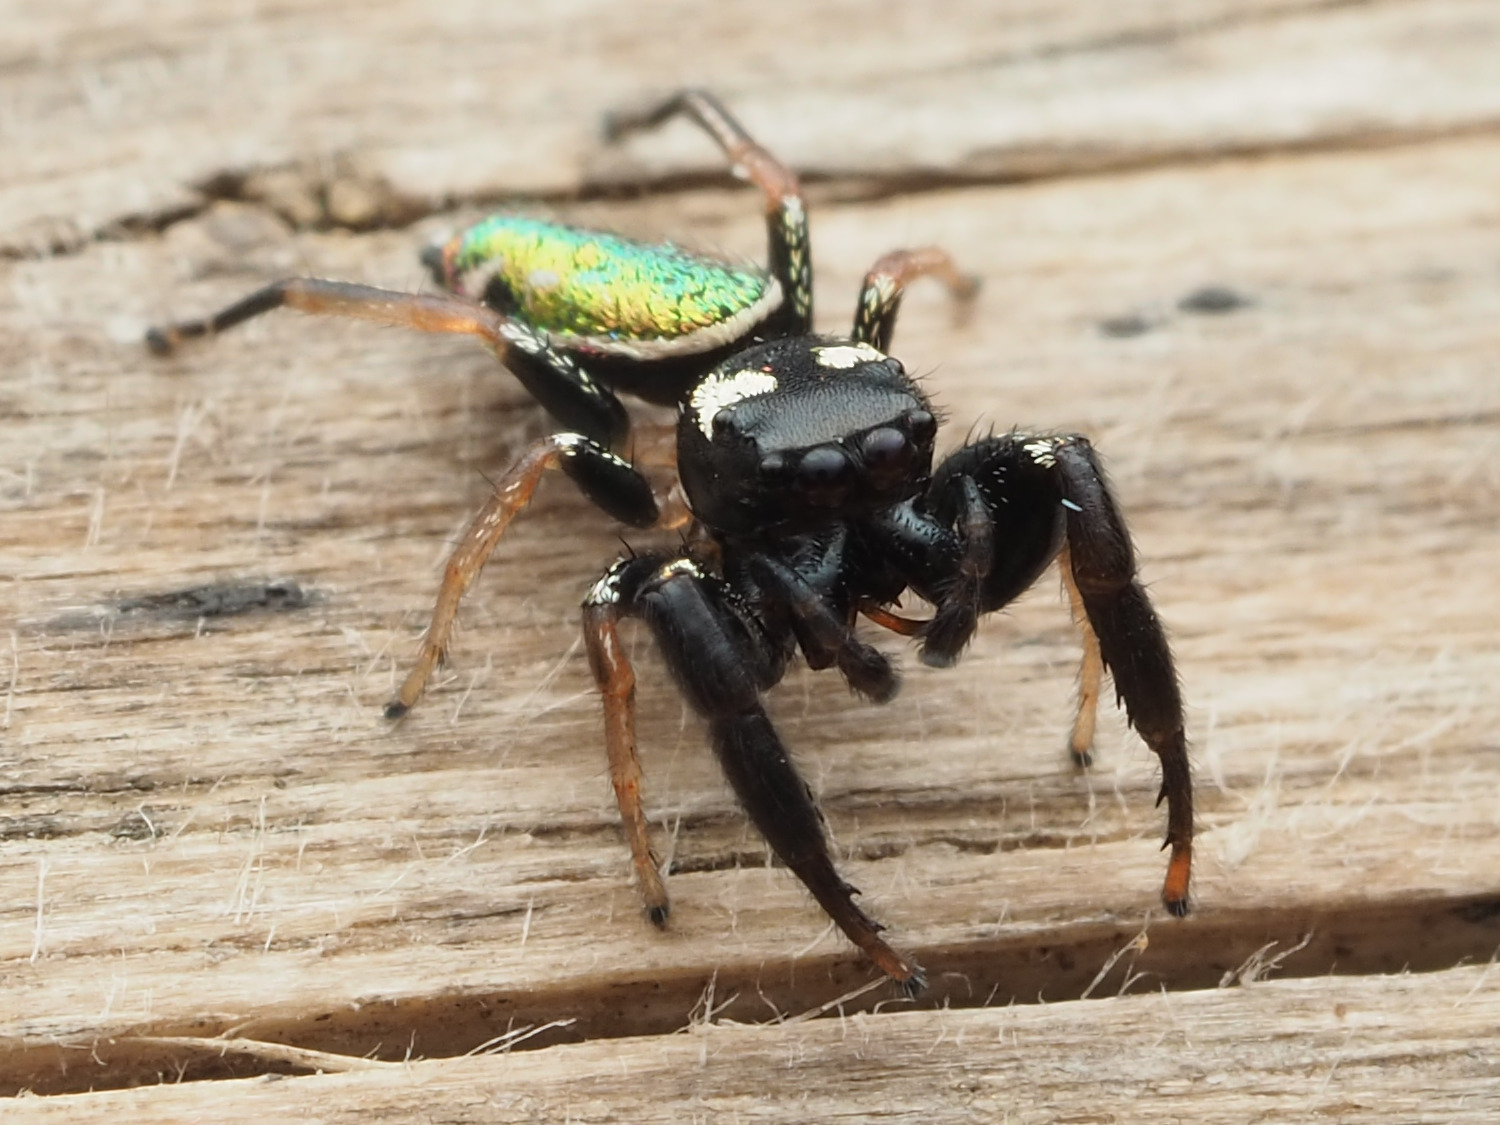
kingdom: Animalia
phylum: Arthropoda
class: Arachnida
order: Araneae
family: Salticidae
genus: Sassacus
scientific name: Sassacus vitis
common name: Jumping spiders
